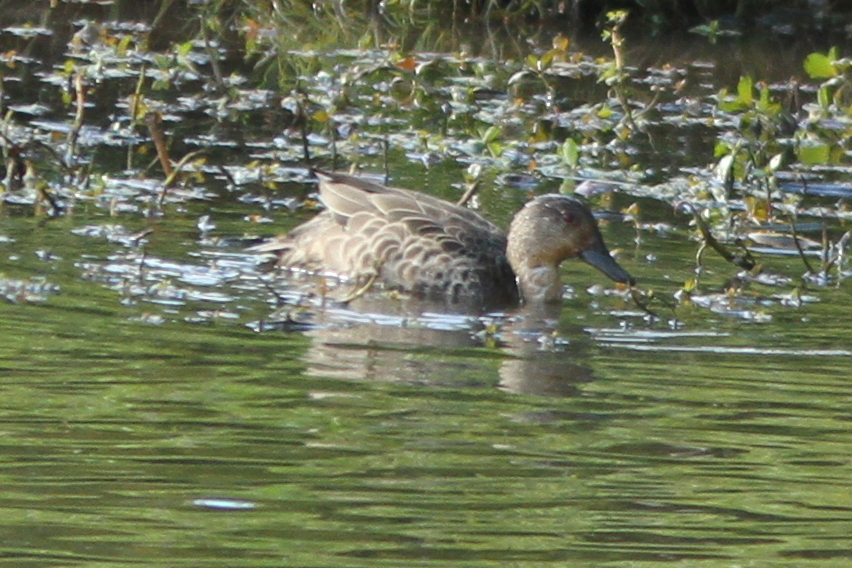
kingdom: Animalia
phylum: Chordata
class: Aves
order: Anseriformes
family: Anatidae
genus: Anas
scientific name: Anas gracilis
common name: Grey teal
